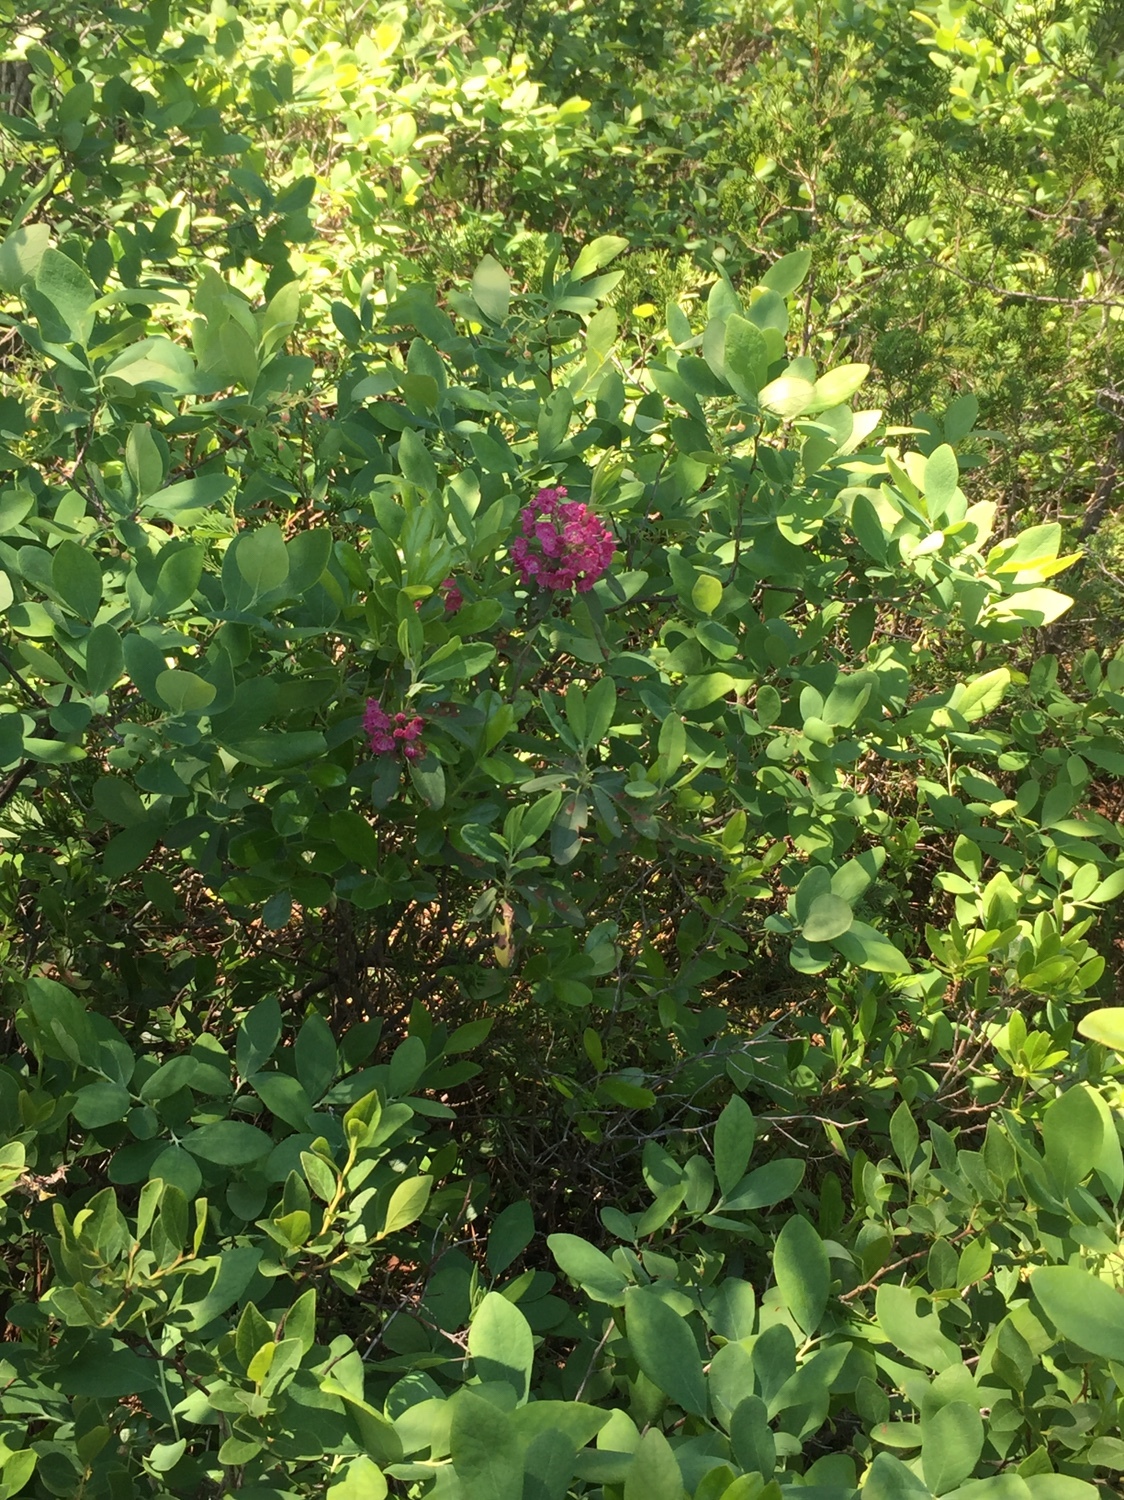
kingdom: Plantae
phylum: Tracheophyta
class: Magnoliopsida
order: Ericales
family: Ericaceae
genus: Kalmia
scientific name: Kalmia angustifolia
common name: Sheep-laurel
